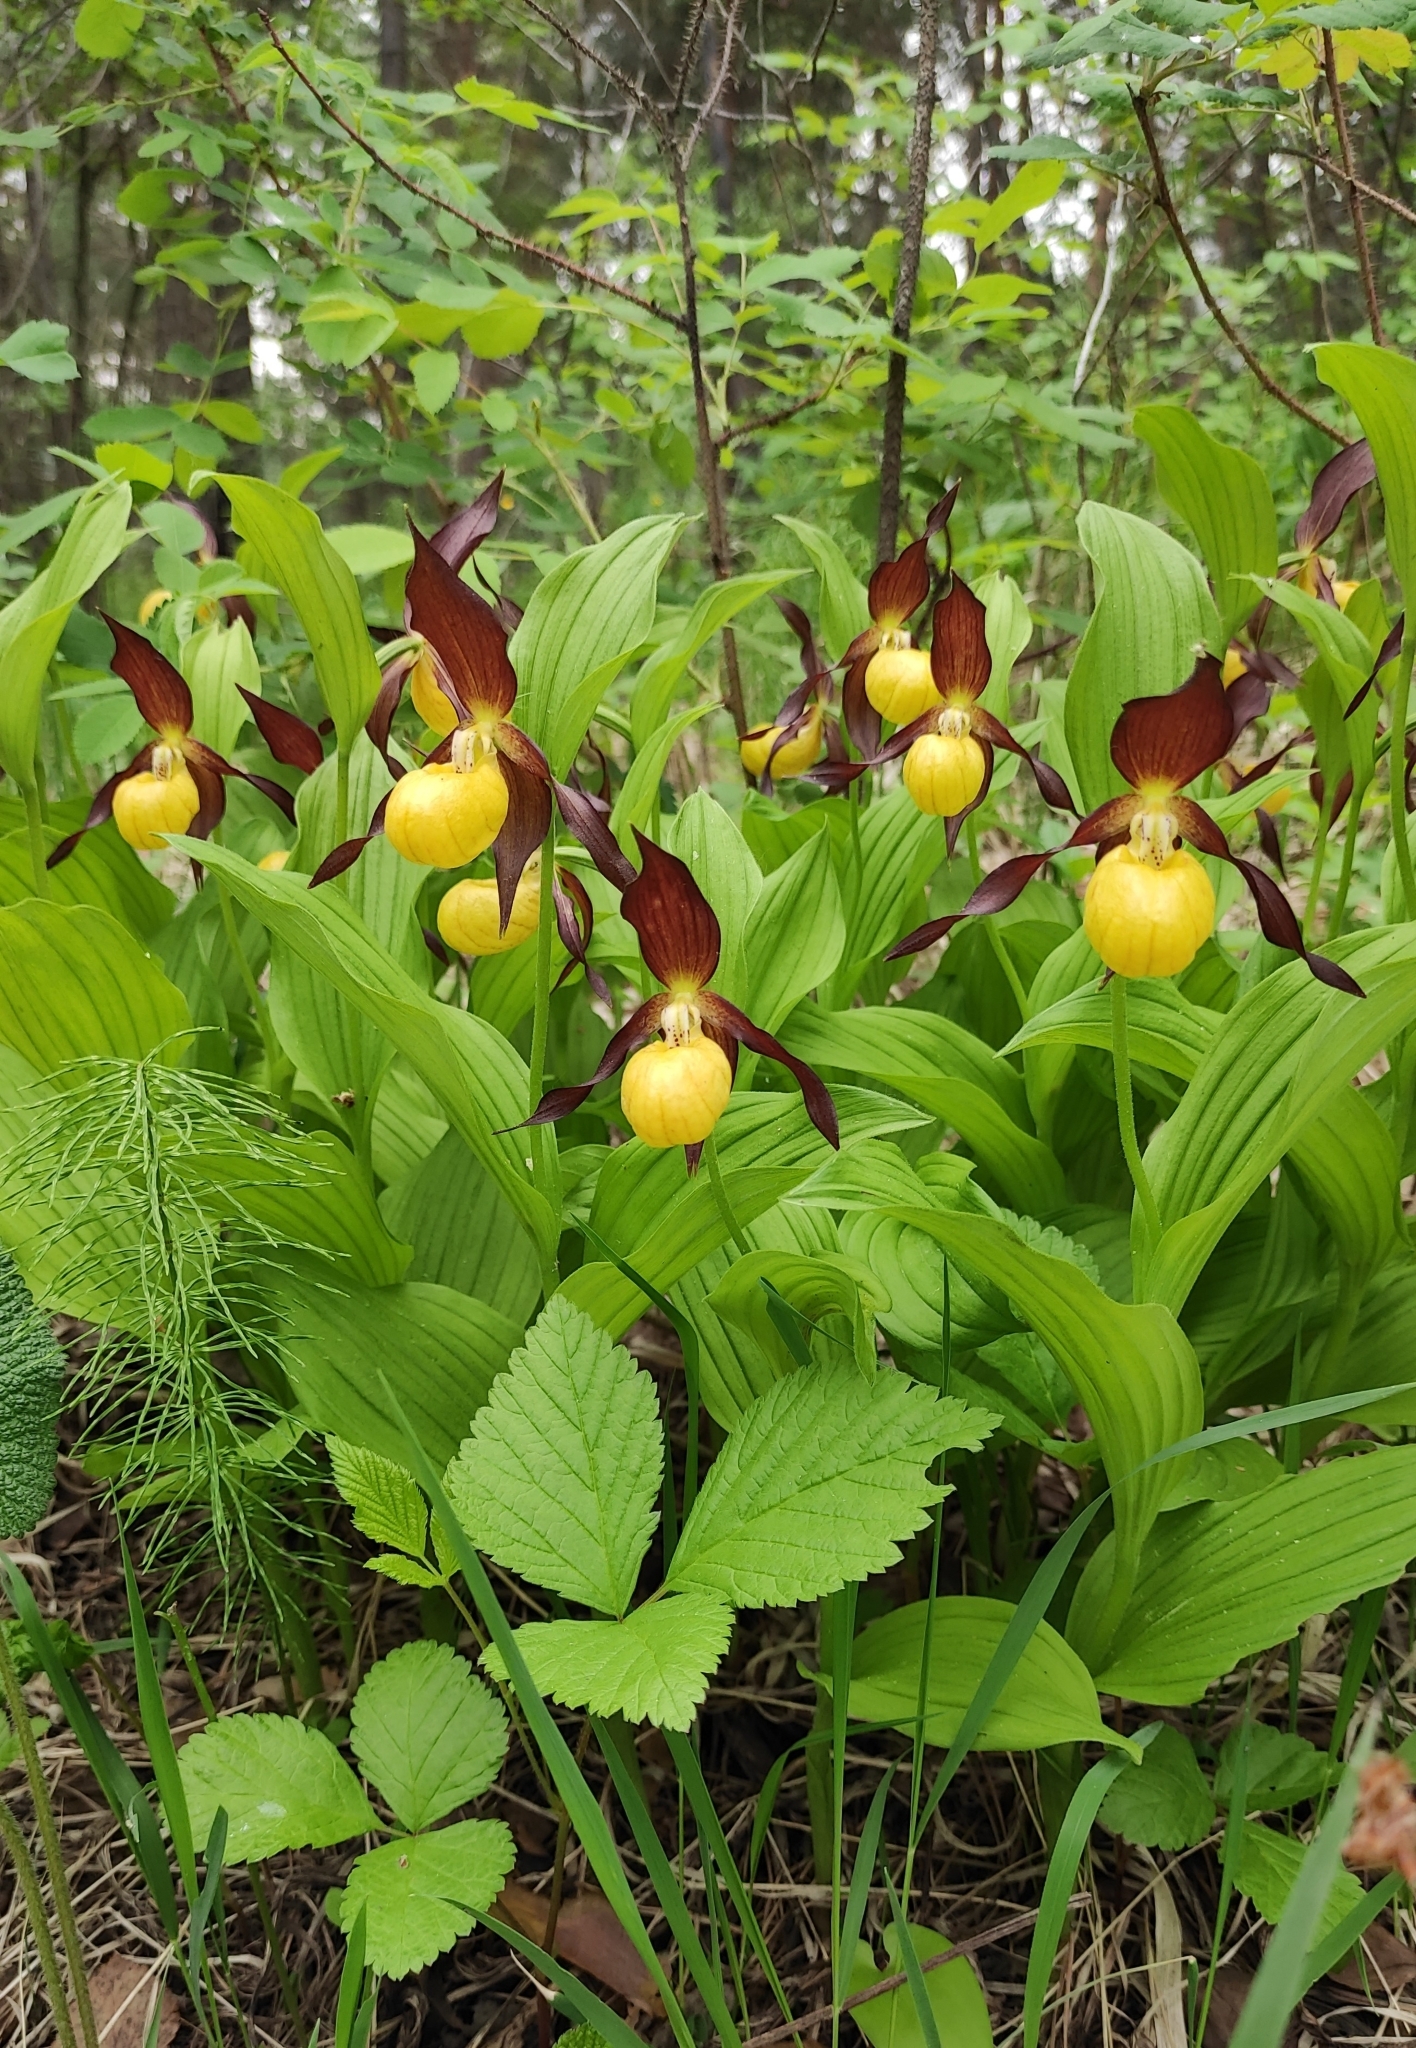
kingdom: Plantae
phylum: Tracheophyta
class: Liliopsida
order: Asparagales
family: Orchidaceae
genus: Cypripedium
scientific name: Cypripedium calceolus
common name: Lady's-slipper
